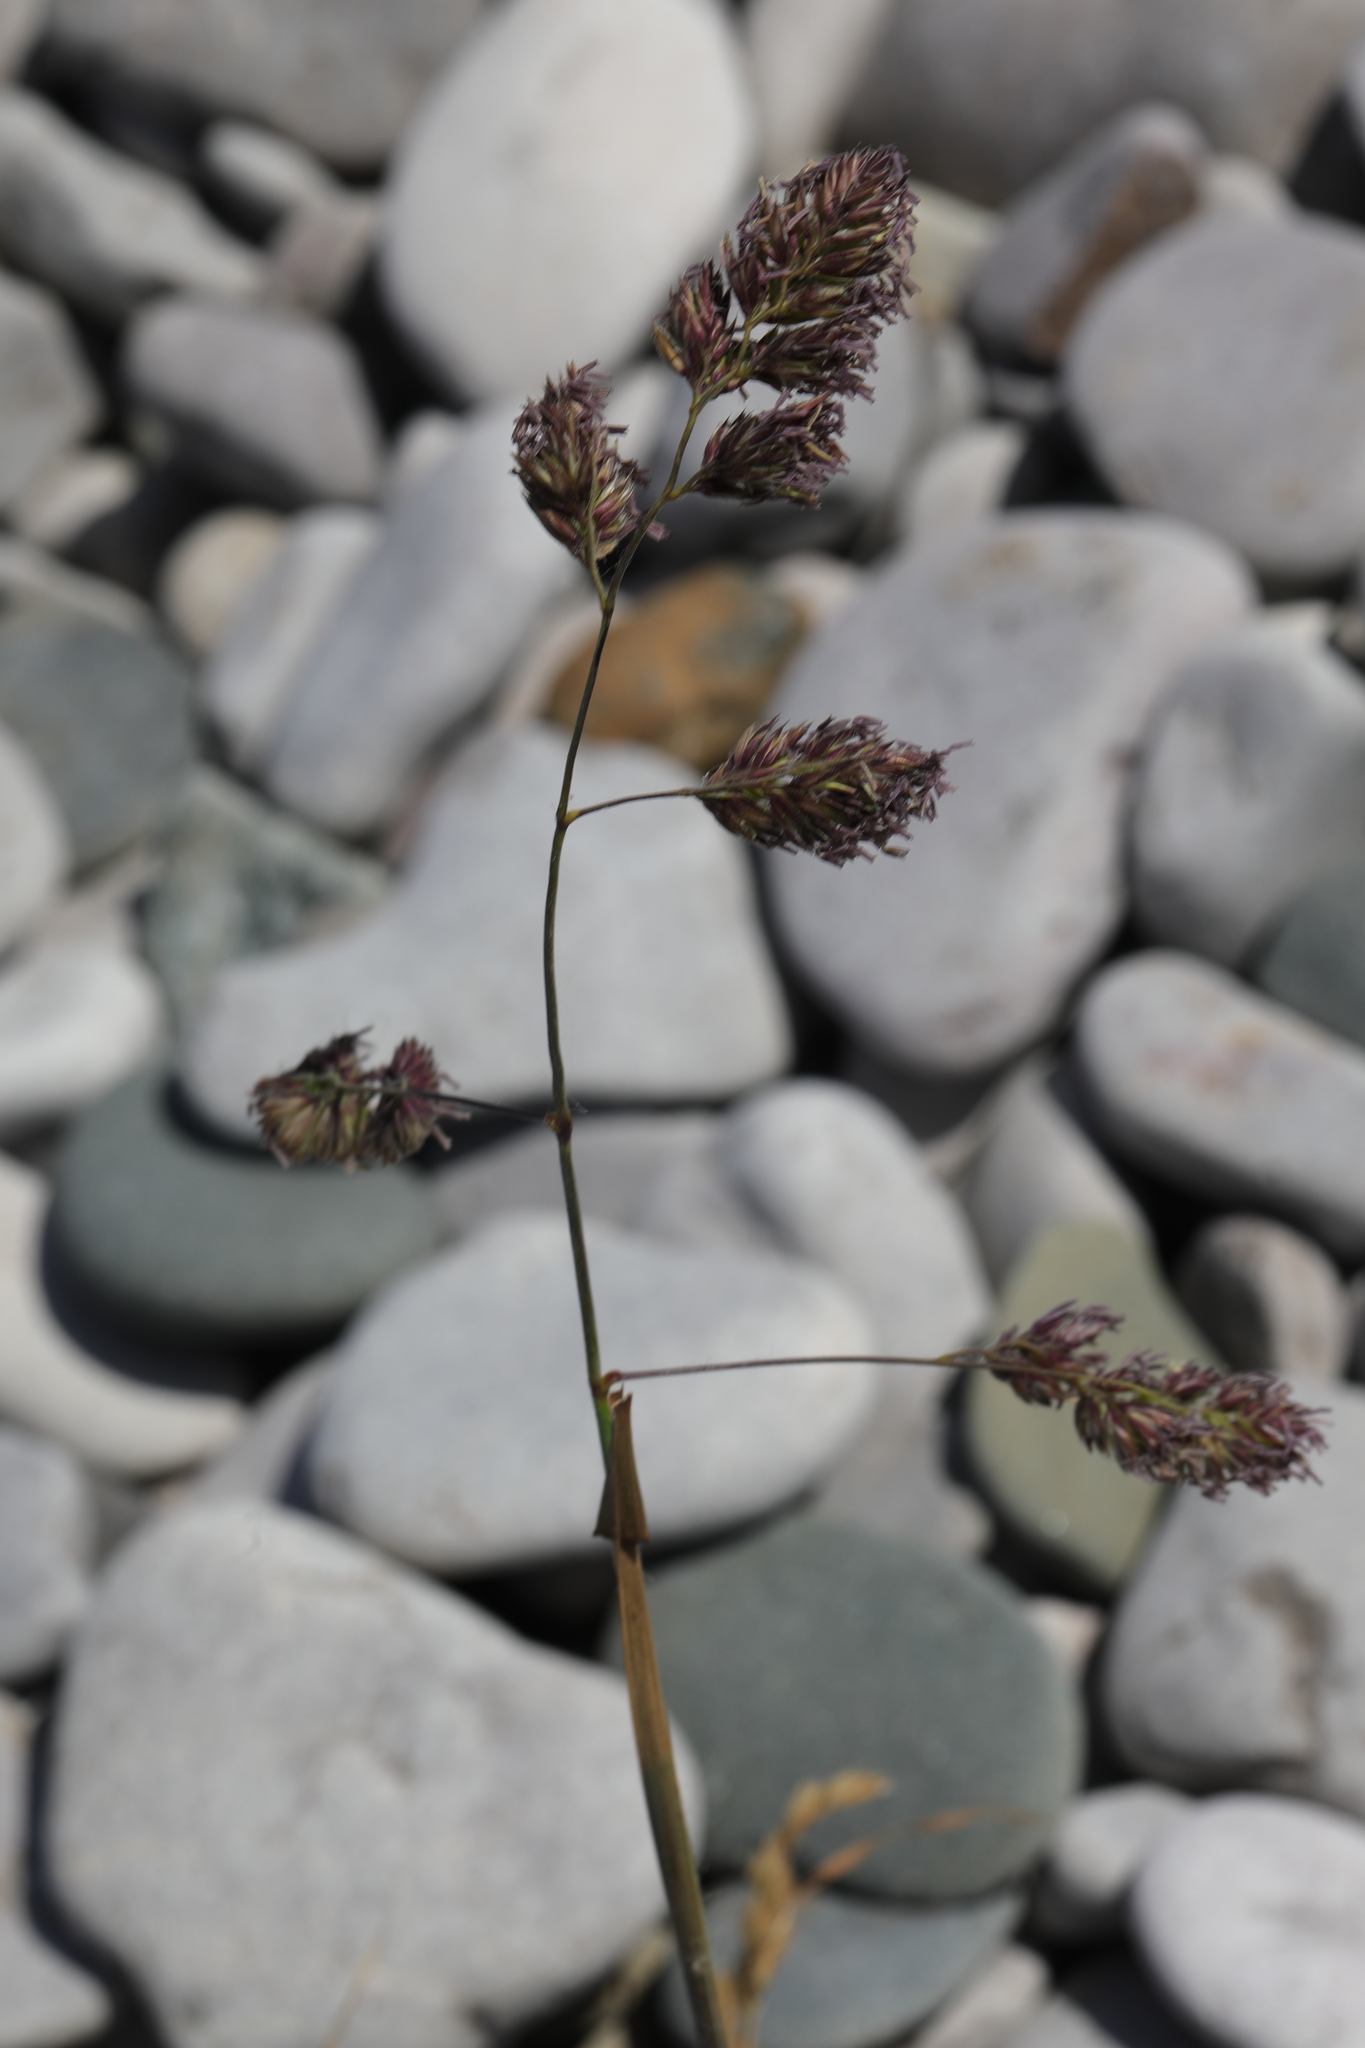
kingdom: Plantae
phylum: Tracheophyta
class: Liliopsida
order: Poales
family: Poaceae
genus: Dactylis
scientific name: Dactylis glomerata
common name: Orchardgrass
